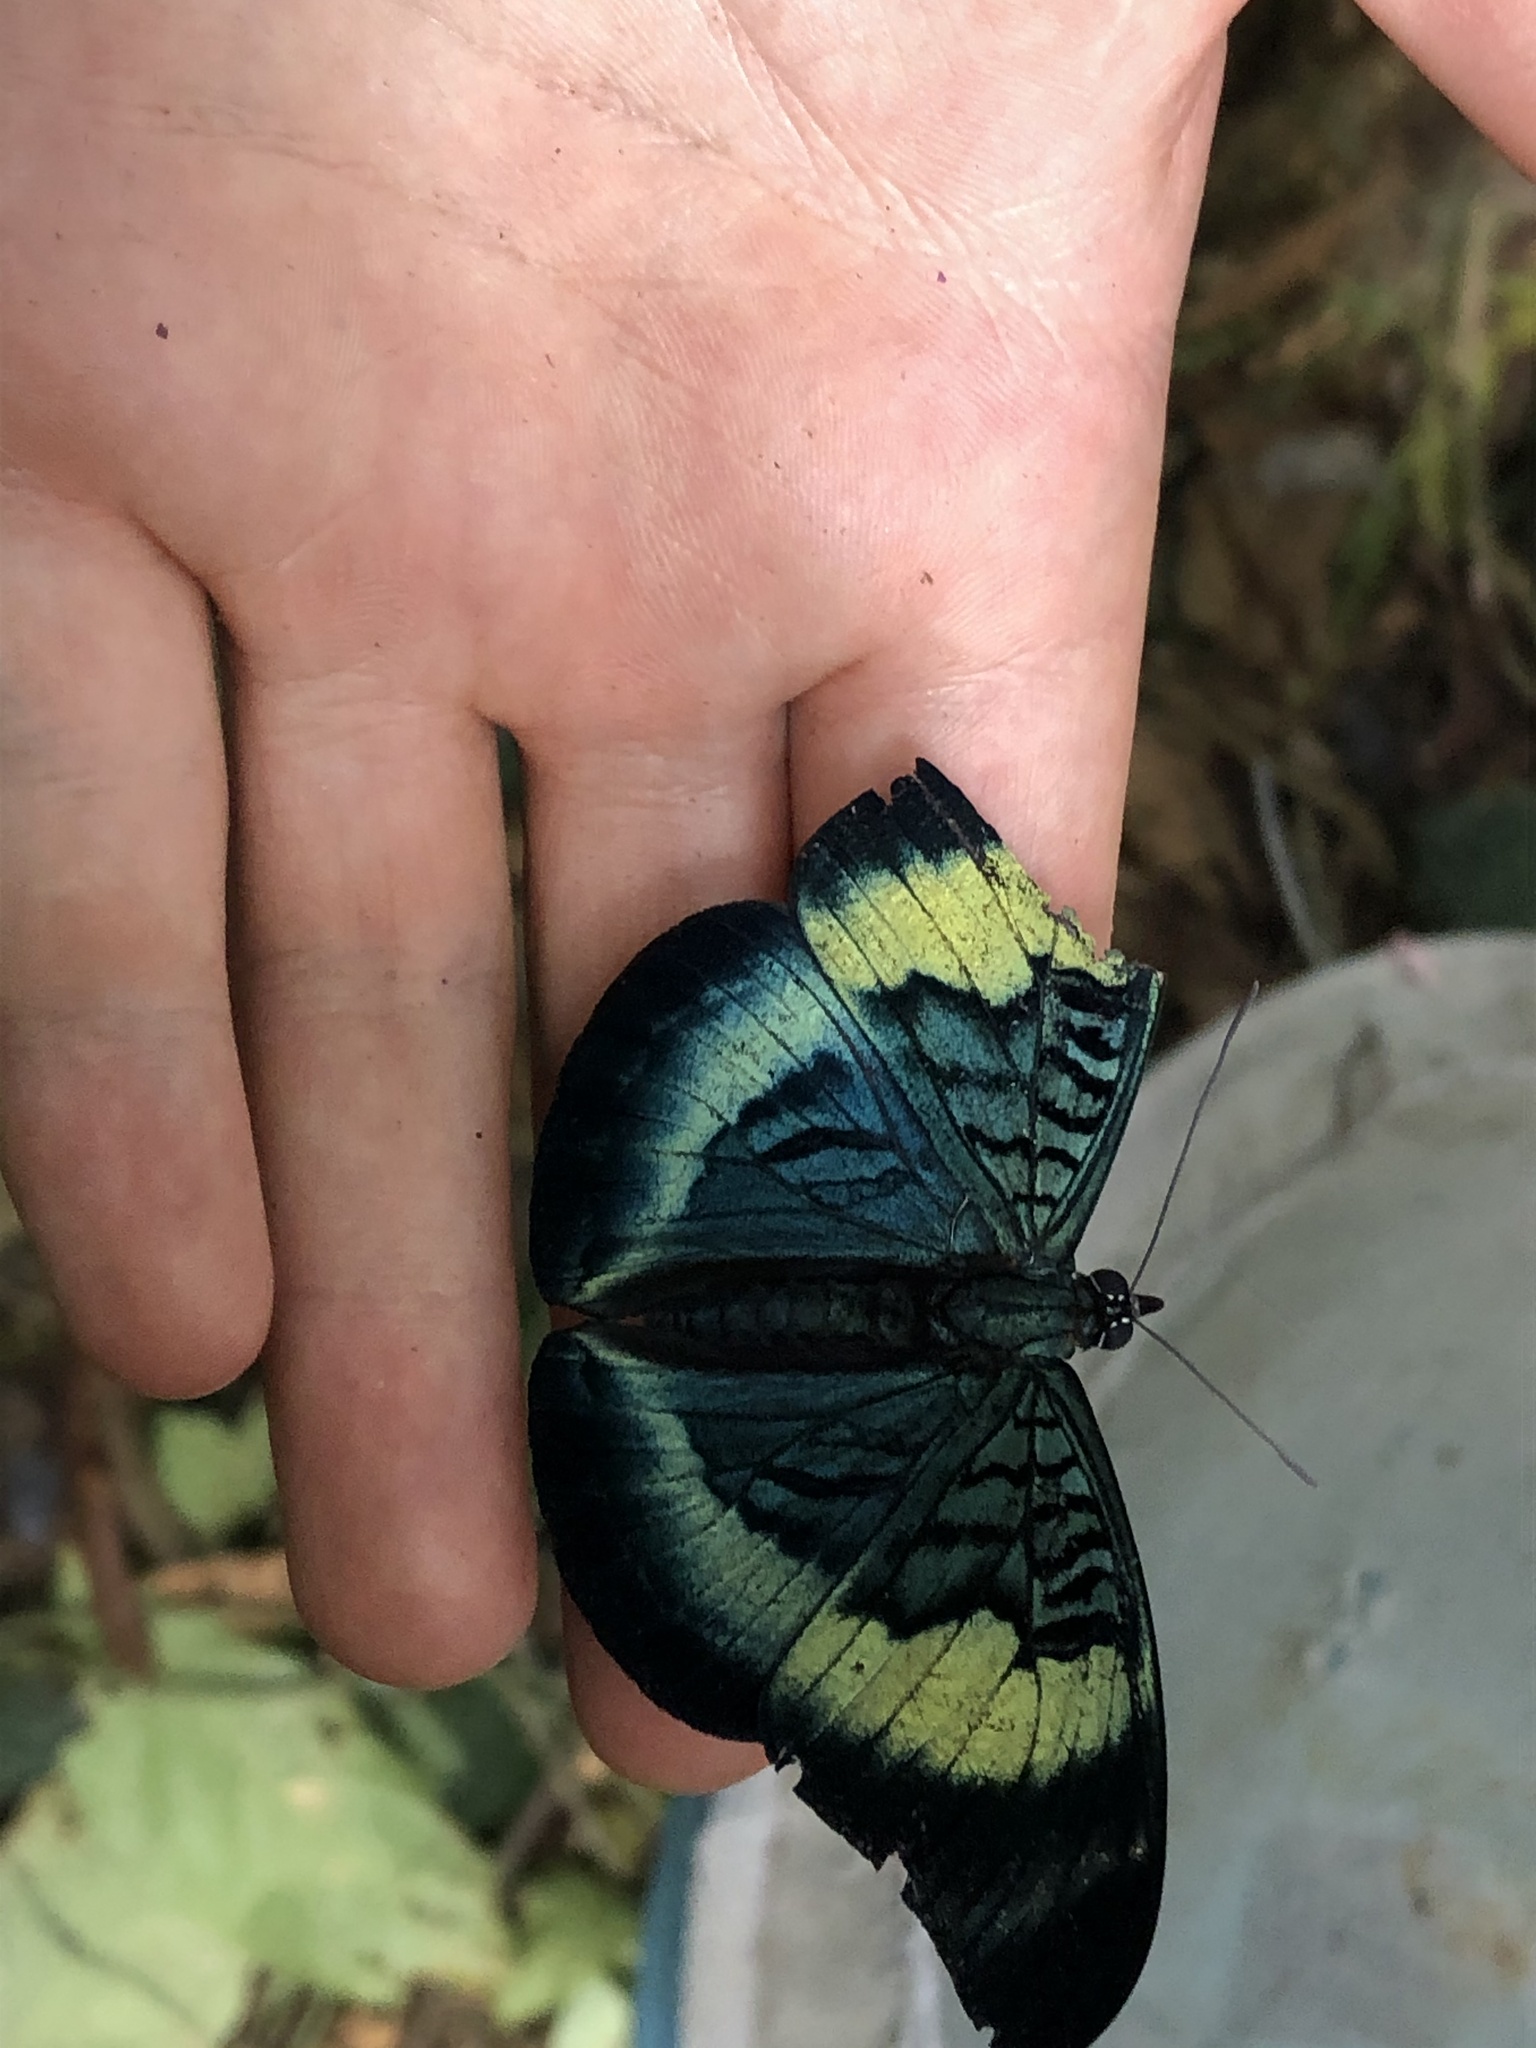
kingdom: Animalia
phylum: Arthropoda
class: Insecta
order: Lepidoptera
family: Nymphalidae
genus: Panacea
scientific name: Panacea prola
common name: Red flasher
